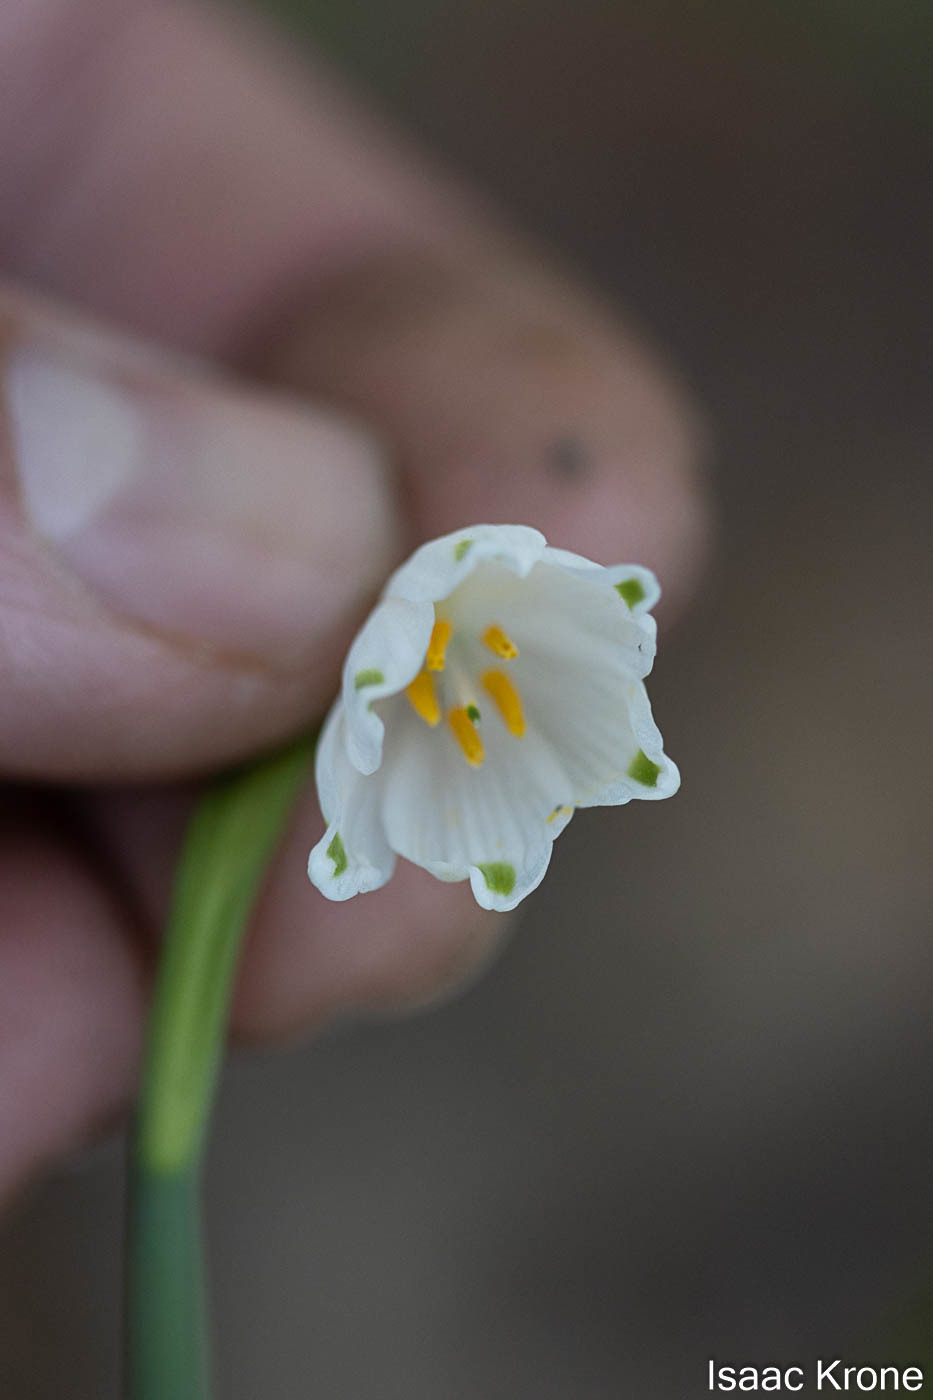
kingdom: Plantae
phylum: Tracheophyta
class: Liliopsida
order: Asparagales
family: Amaryllidaceae
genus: Leucojum
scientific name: Leucojum aestivum
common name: Summer snowflake
